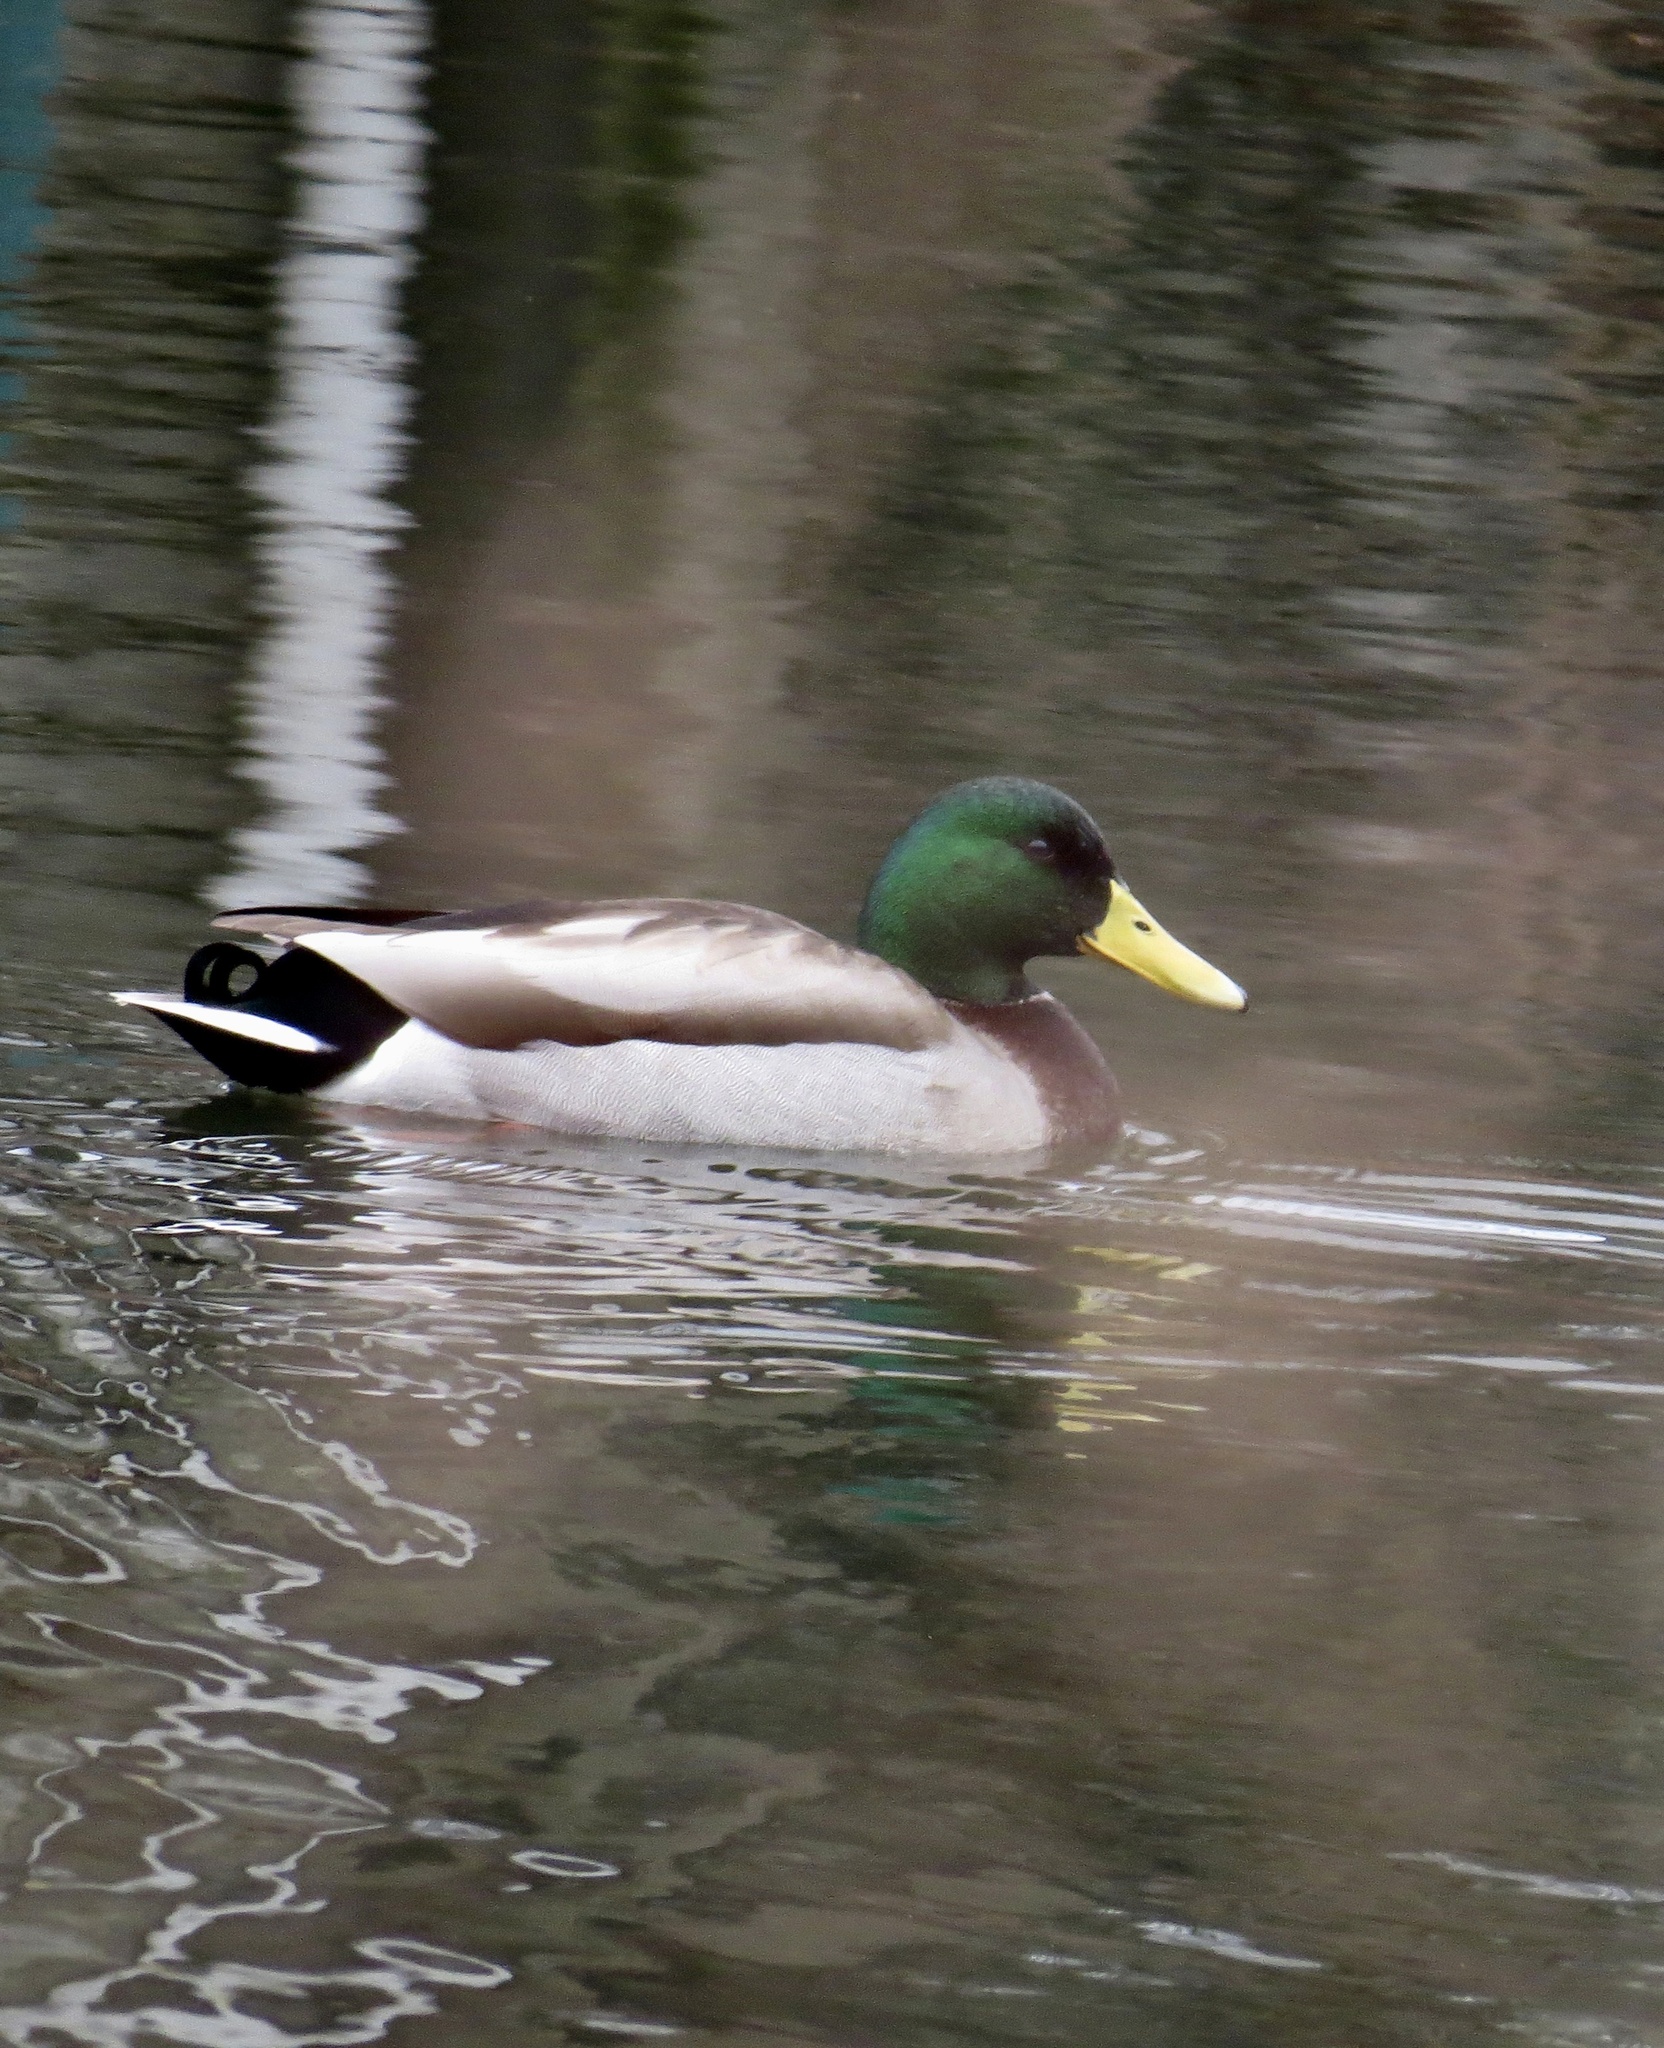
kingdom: Animalia
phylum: Chordata
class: Aves
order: Anseriformes
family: Anatidae
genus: Anas
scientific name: Anas platyrhynchos
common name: Mallard
